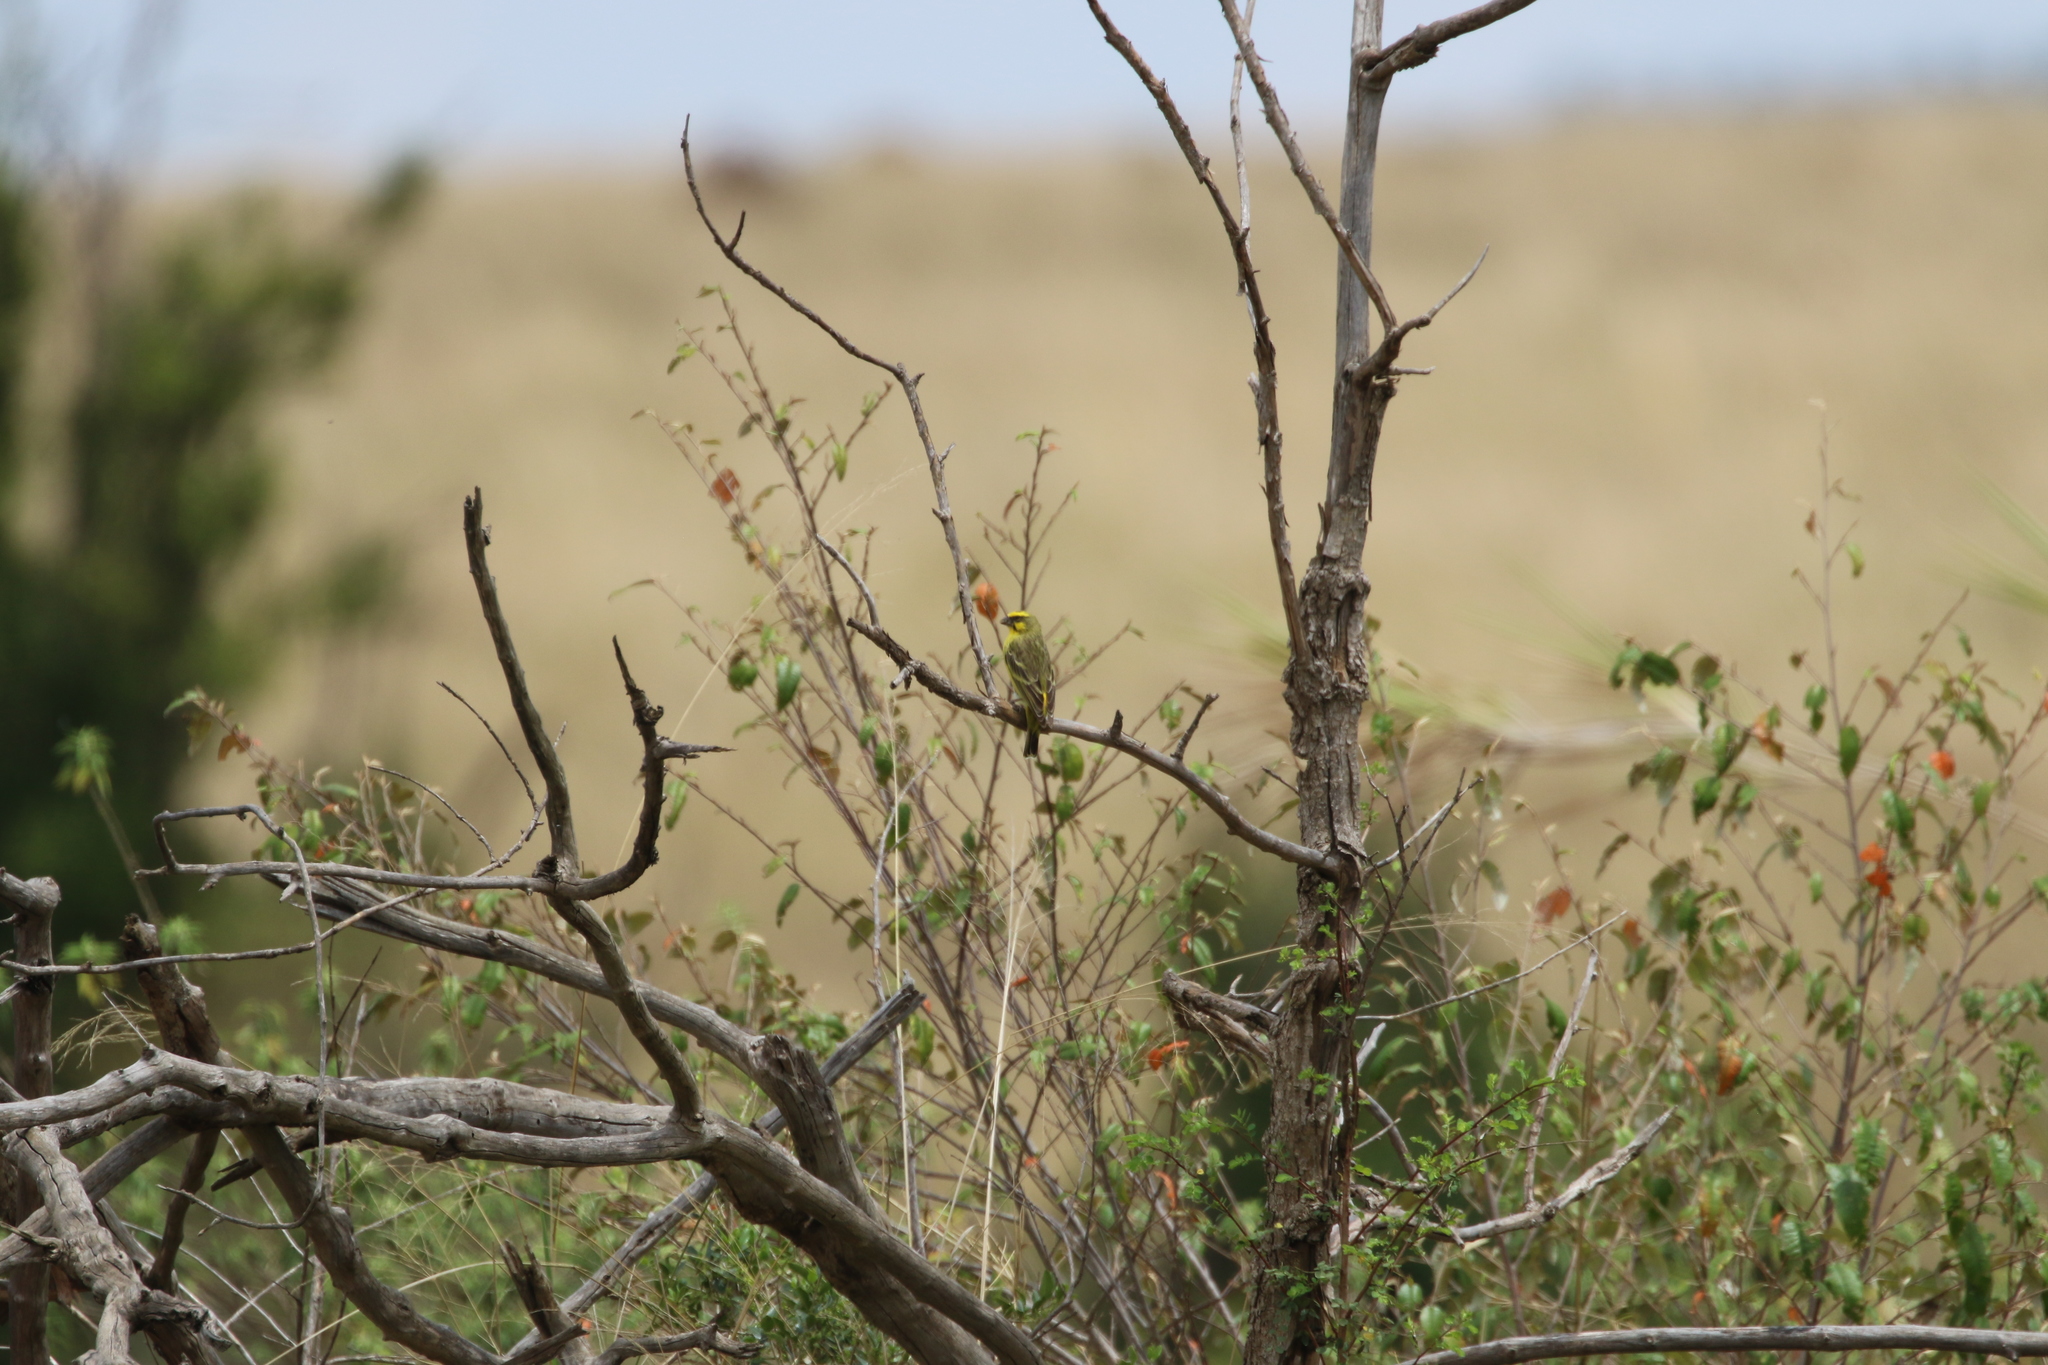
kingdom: Animalia
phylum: Chordata
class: Aves
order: Passeriformes
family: Fringillidae
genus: Crithagra
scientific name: Crithagra mozambica
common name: Yellow-fronted canary
